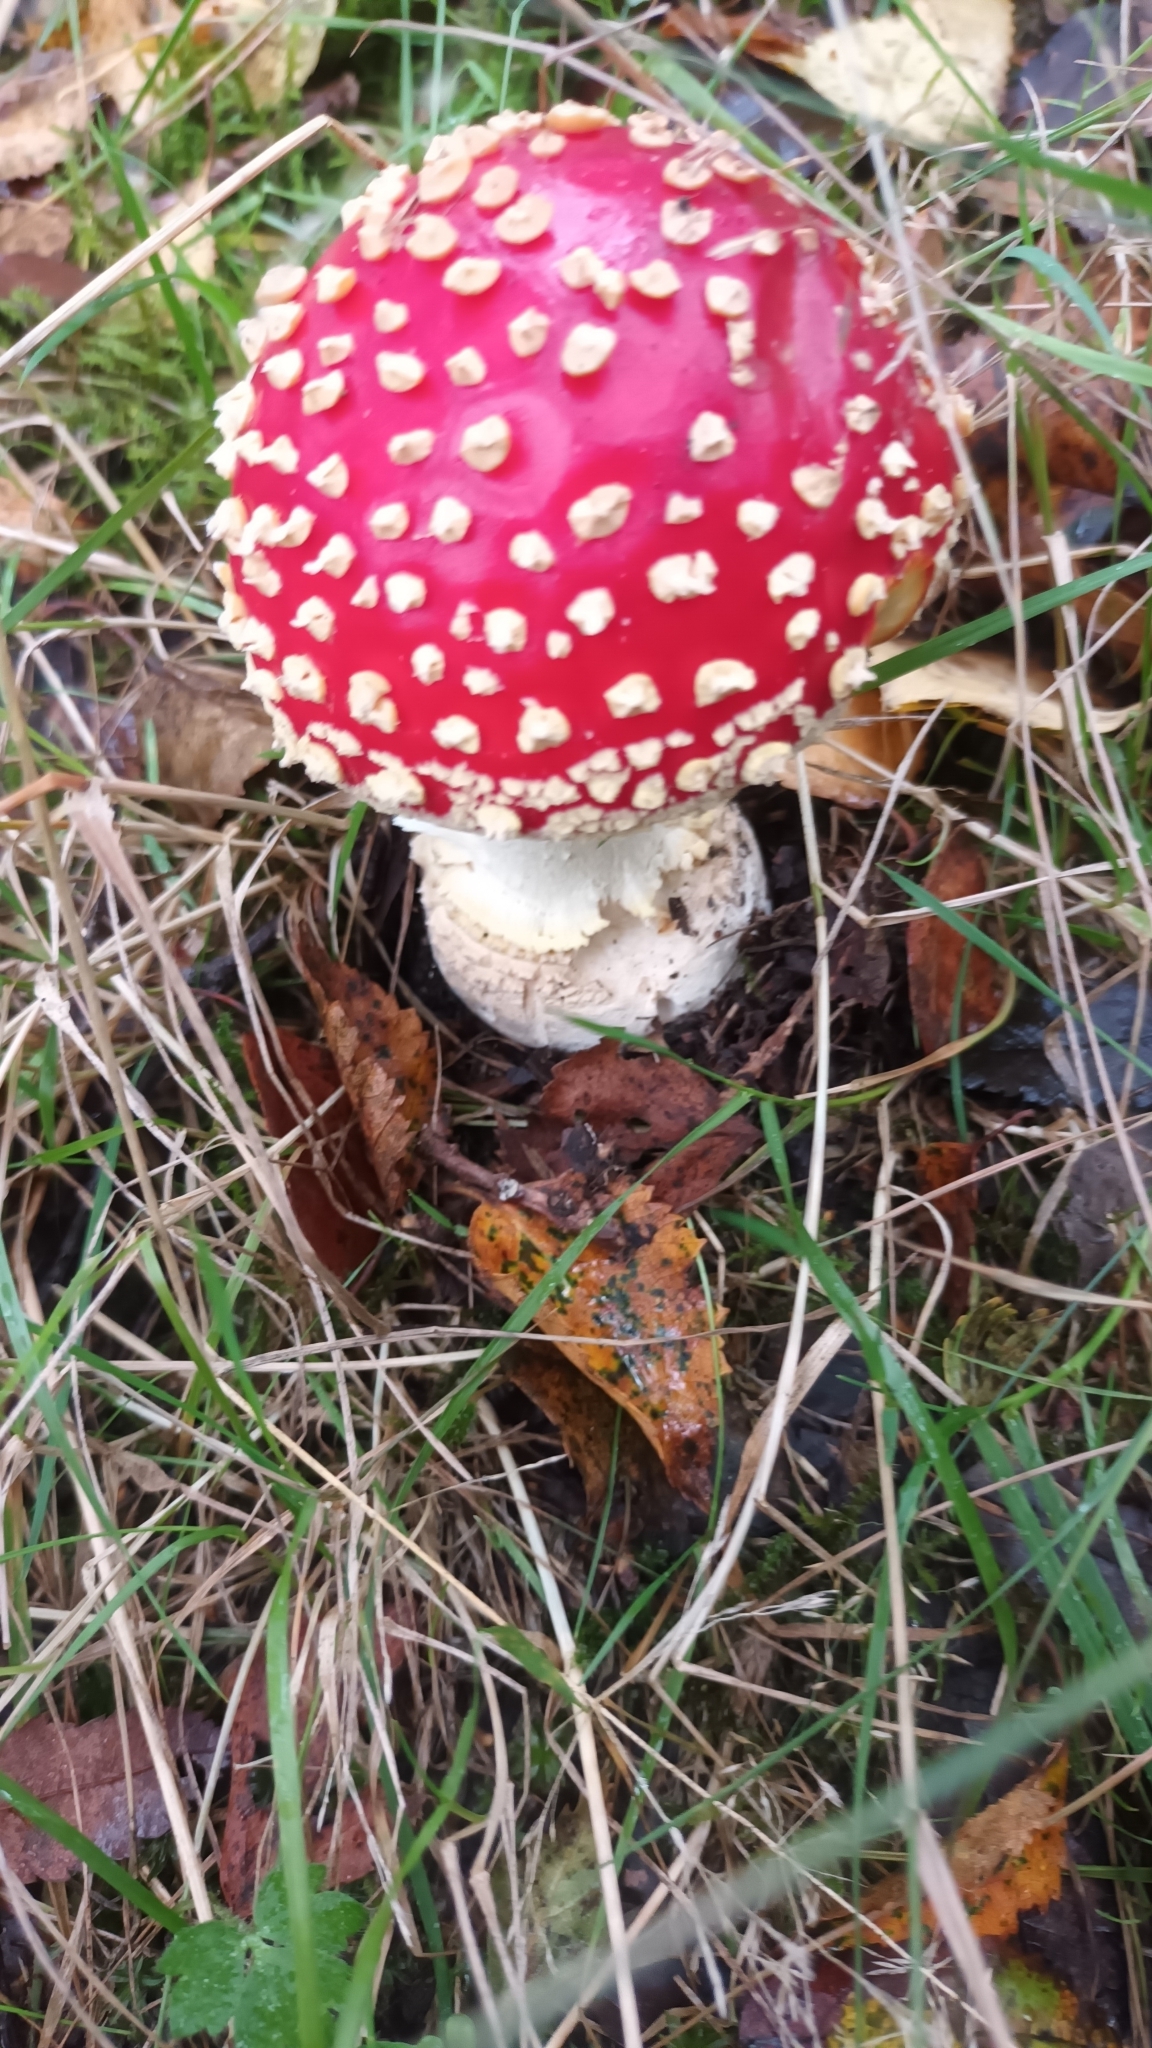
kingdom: Fungi
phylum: Basidiomycota
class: Agaricomycetes
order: Agaricales
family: Amanitaceae
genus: Amanita
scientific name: Amanita muscaria
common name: Fly agaric
